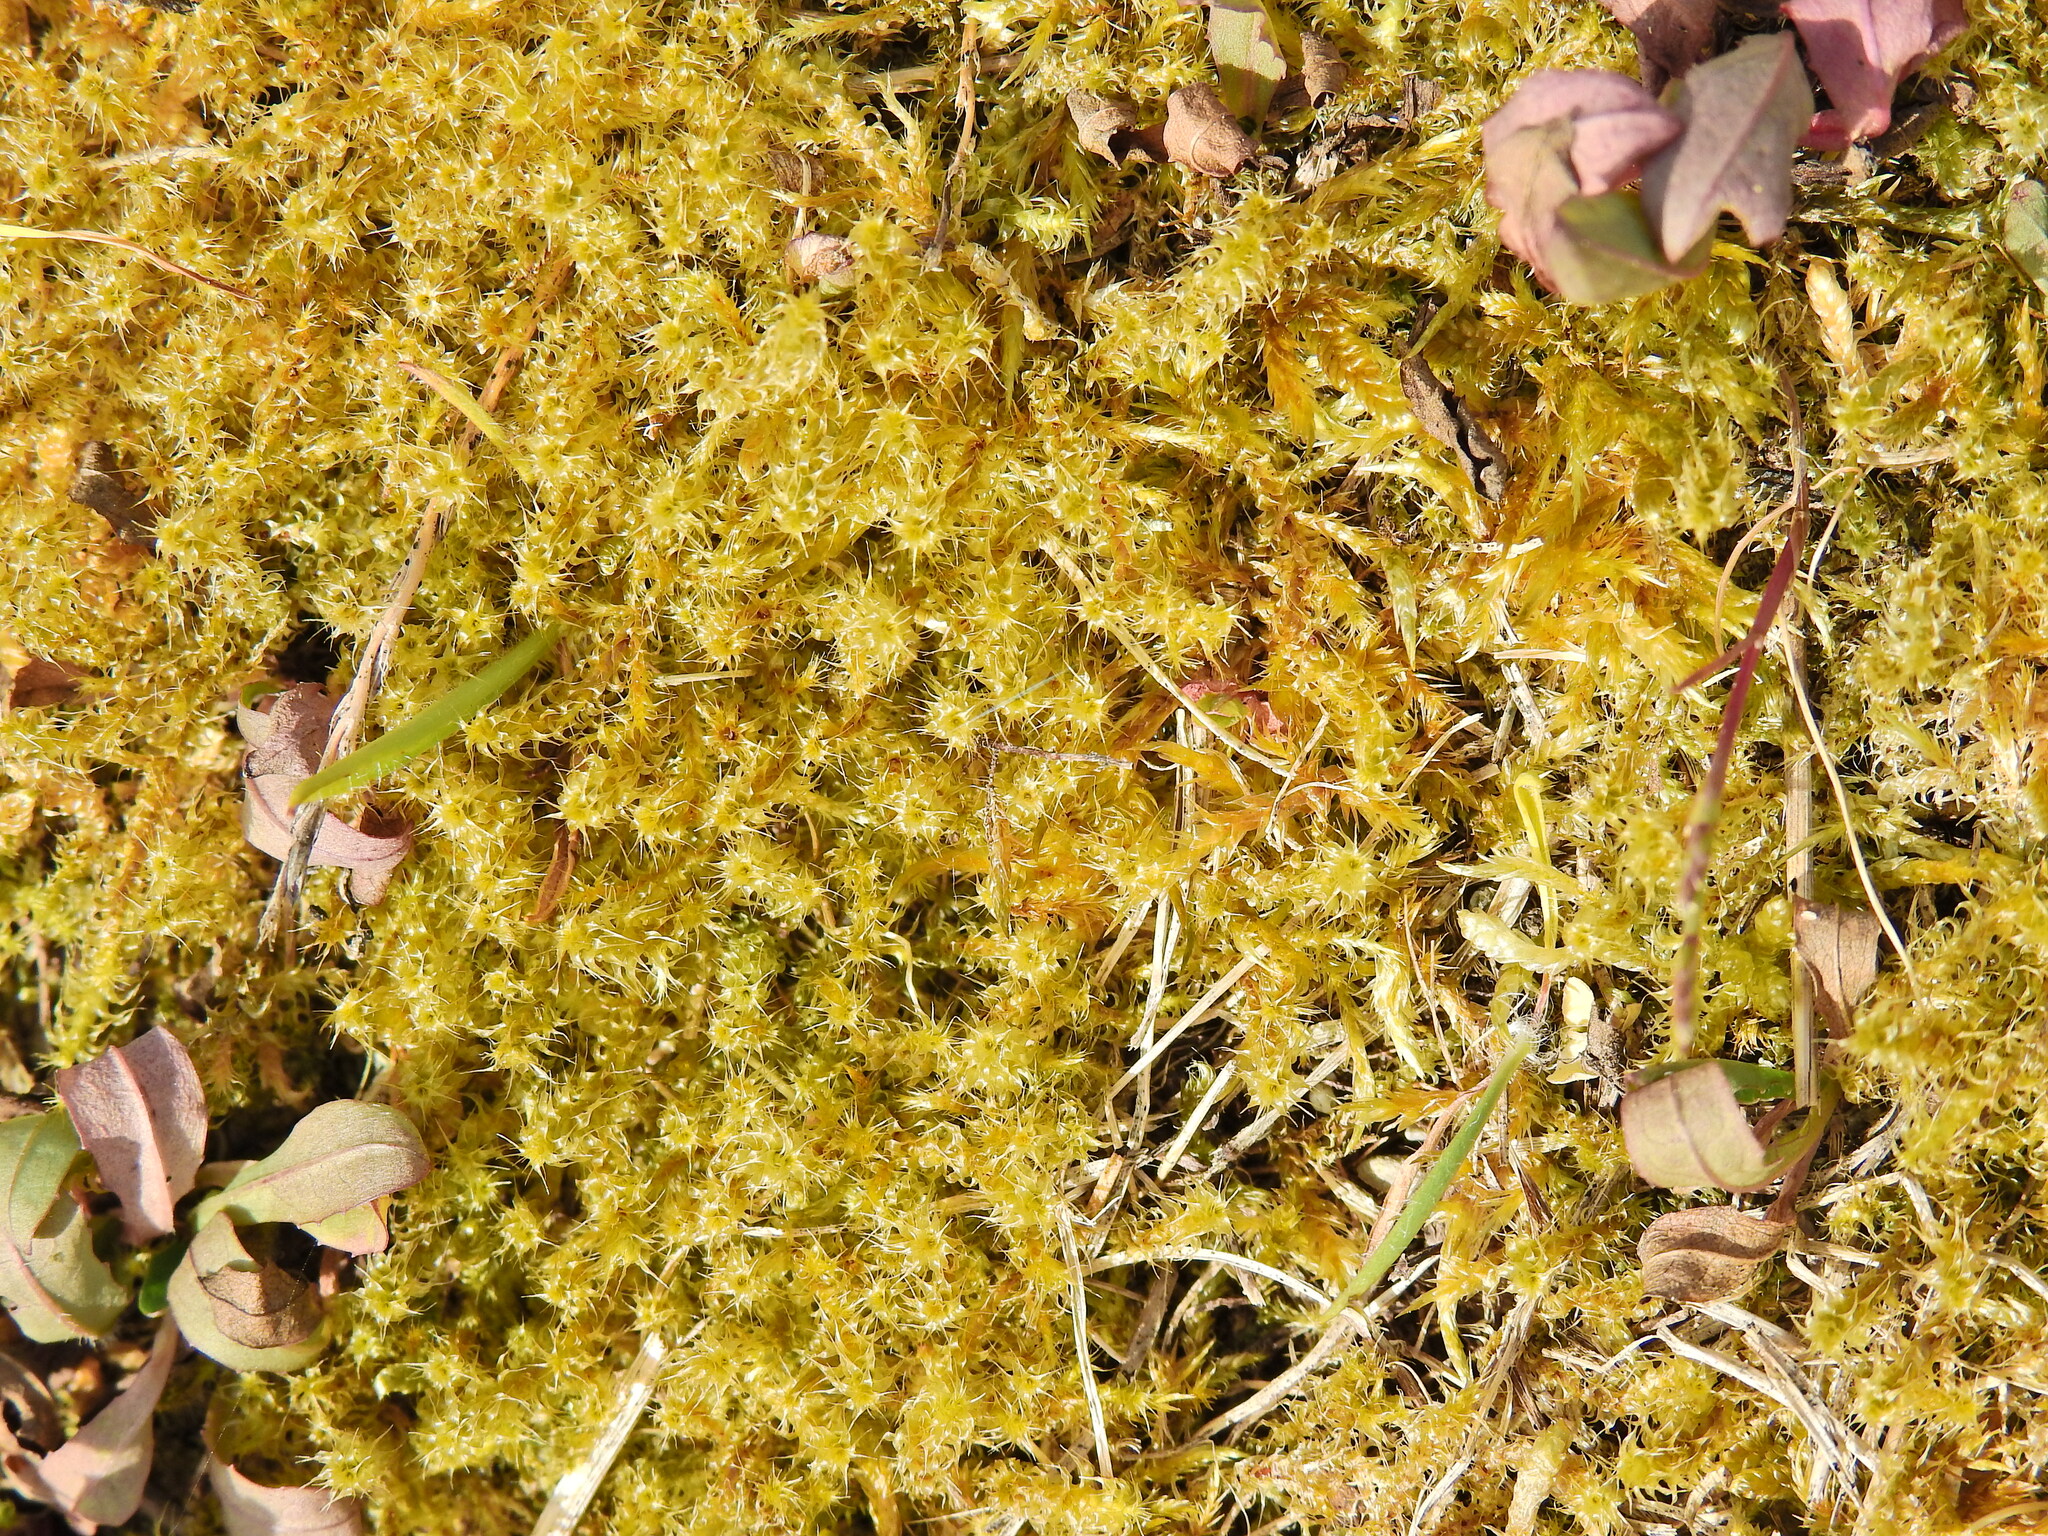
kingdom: Plantae
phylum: Bryophyta
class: Bryopsida
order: Hypnales
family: Hylocomiaceae
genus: Rhytidiadelphus
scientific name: Rhytidiadelphus squarrosus
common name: Springy turf-moss
